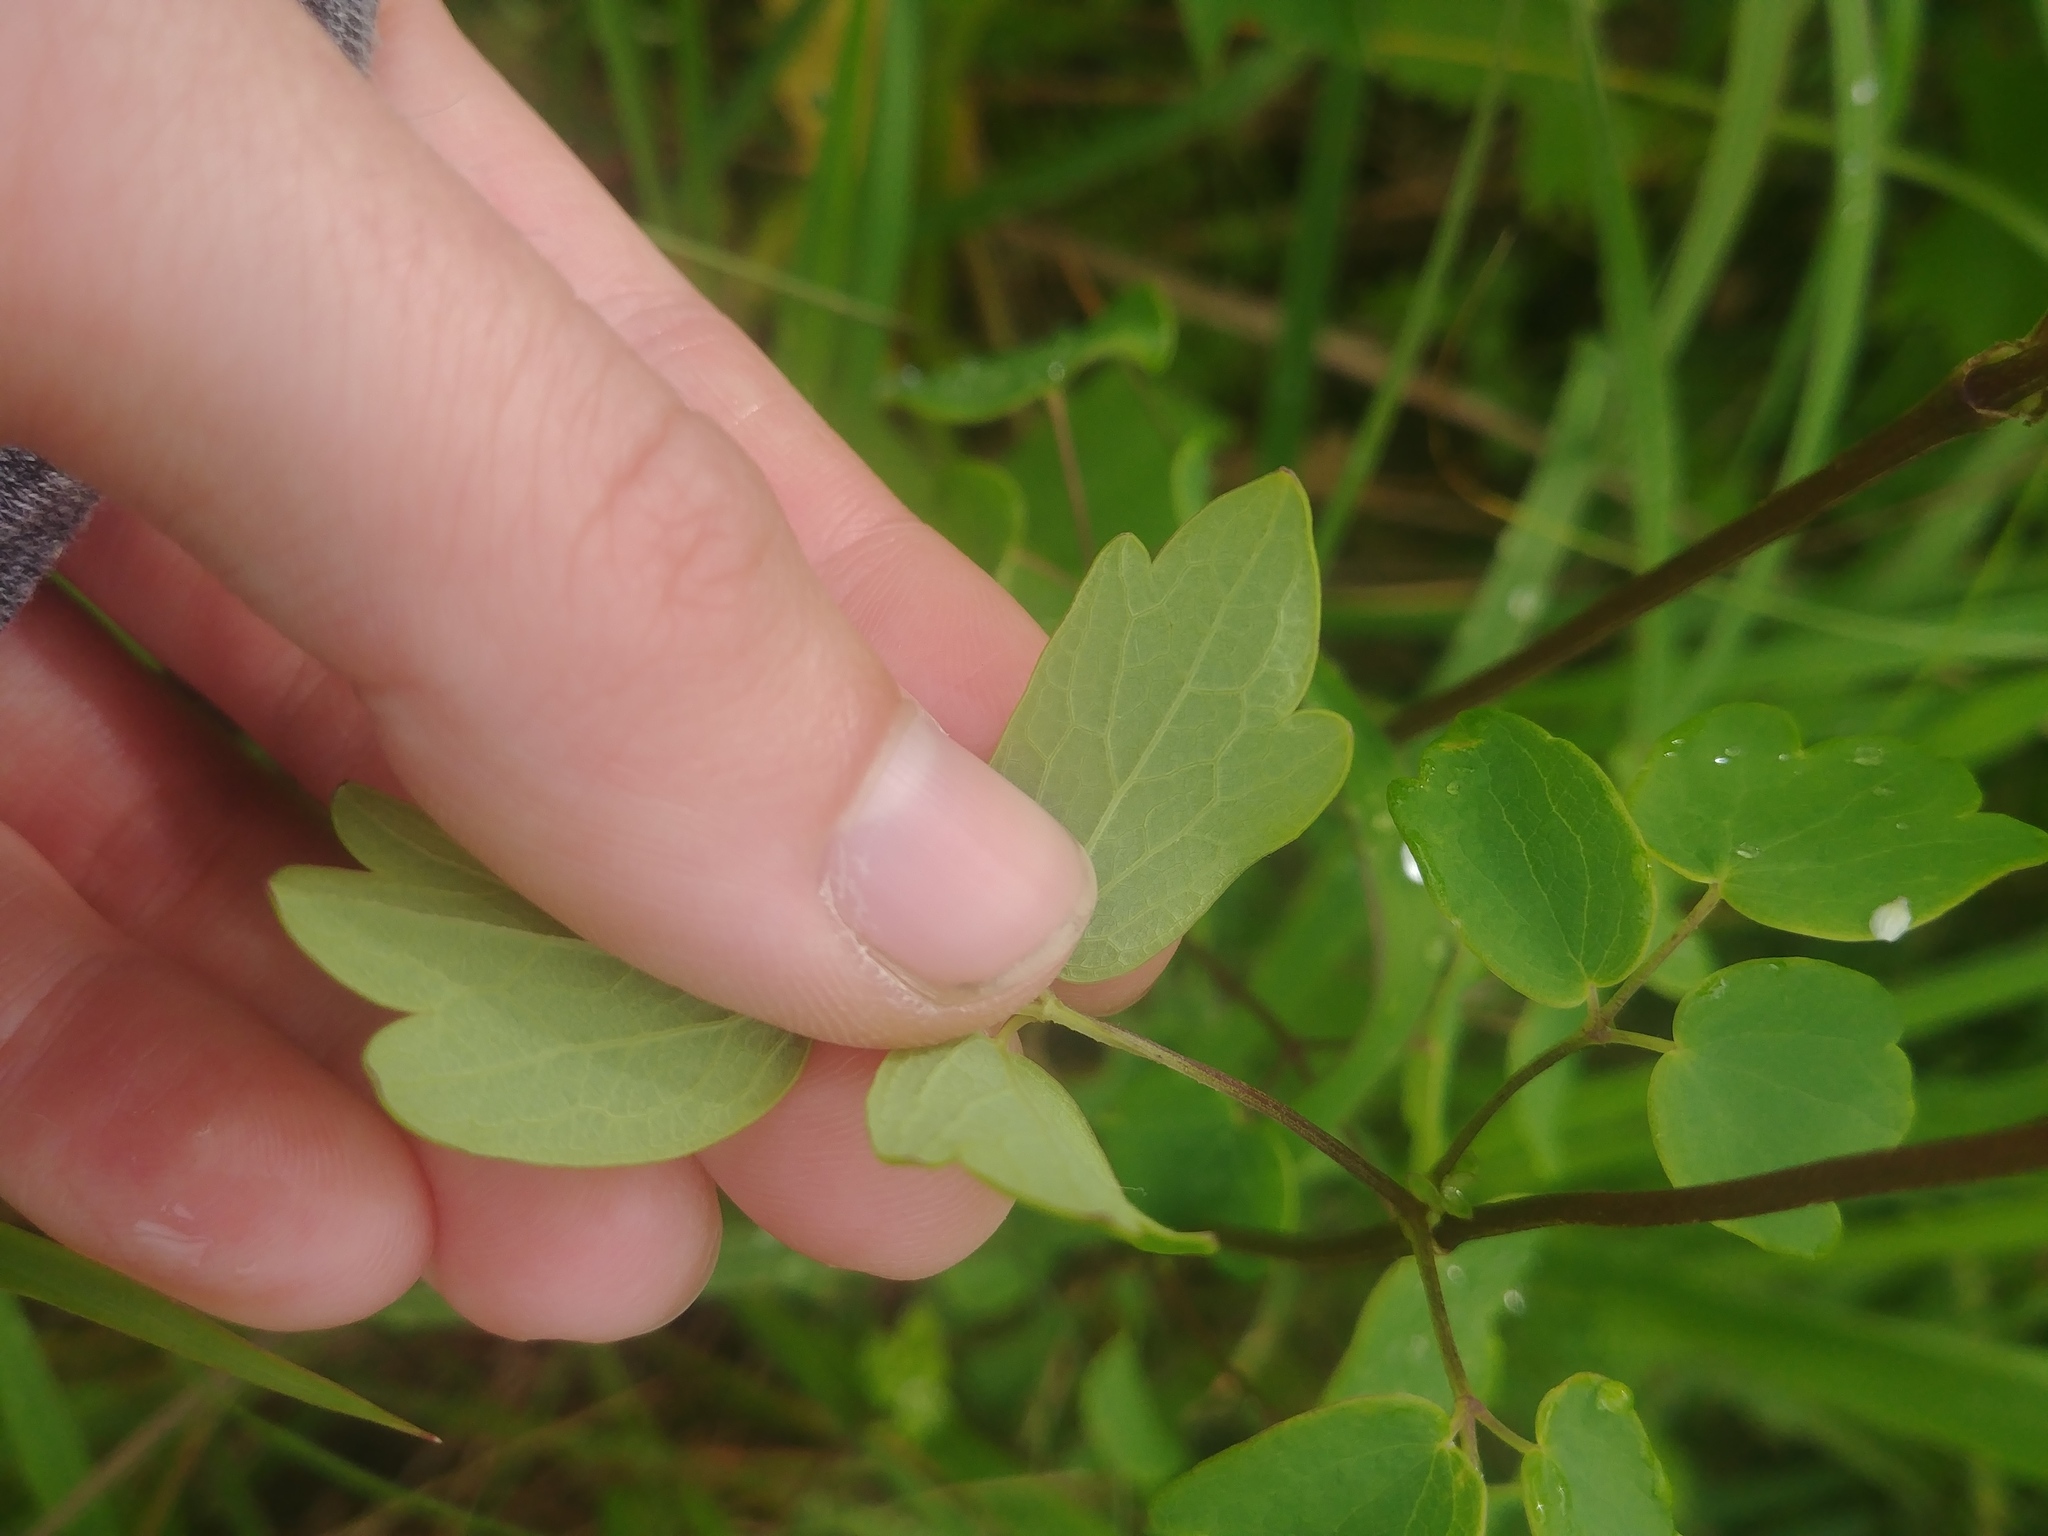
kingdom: Plantae
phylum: Tracheophyta
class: Magnoliopsida
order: Ranunculales
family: Ranunculaceae
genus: Thalictrum
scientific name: Thalictrum dasycarpum
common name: Purple meadow-rue
